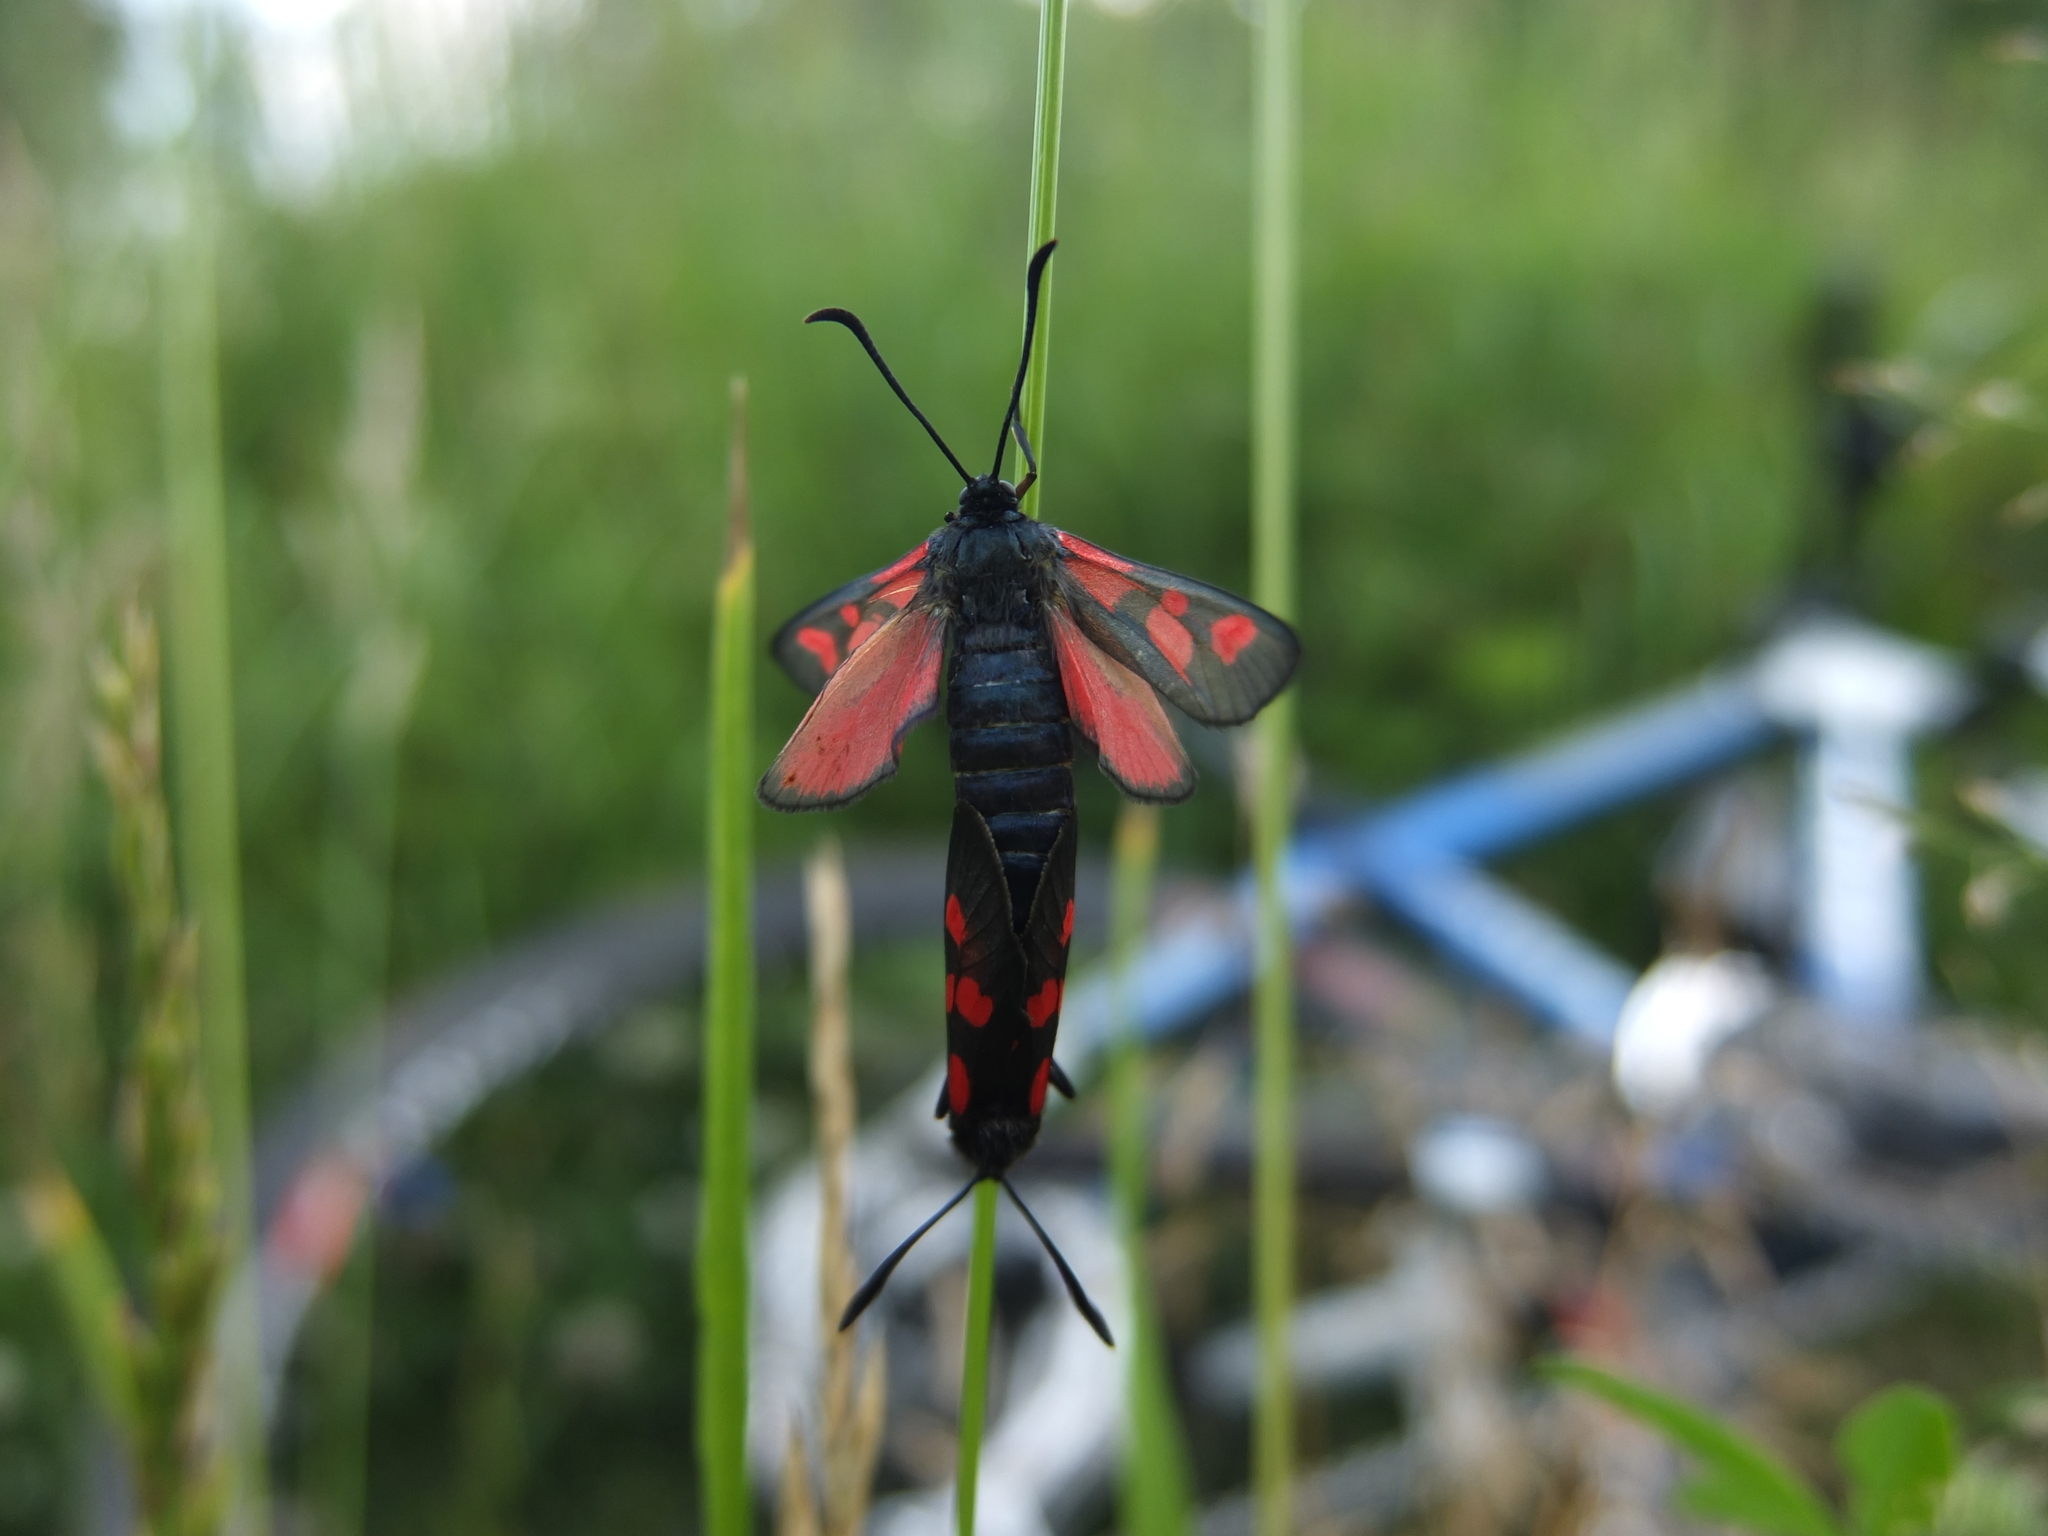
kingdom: Animalia
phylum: Arthropoda
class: Insecta
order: Lepidoptera
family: Zygaenidae
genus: Zygaena
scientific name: Zygaena viciae
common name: New forest burnet
